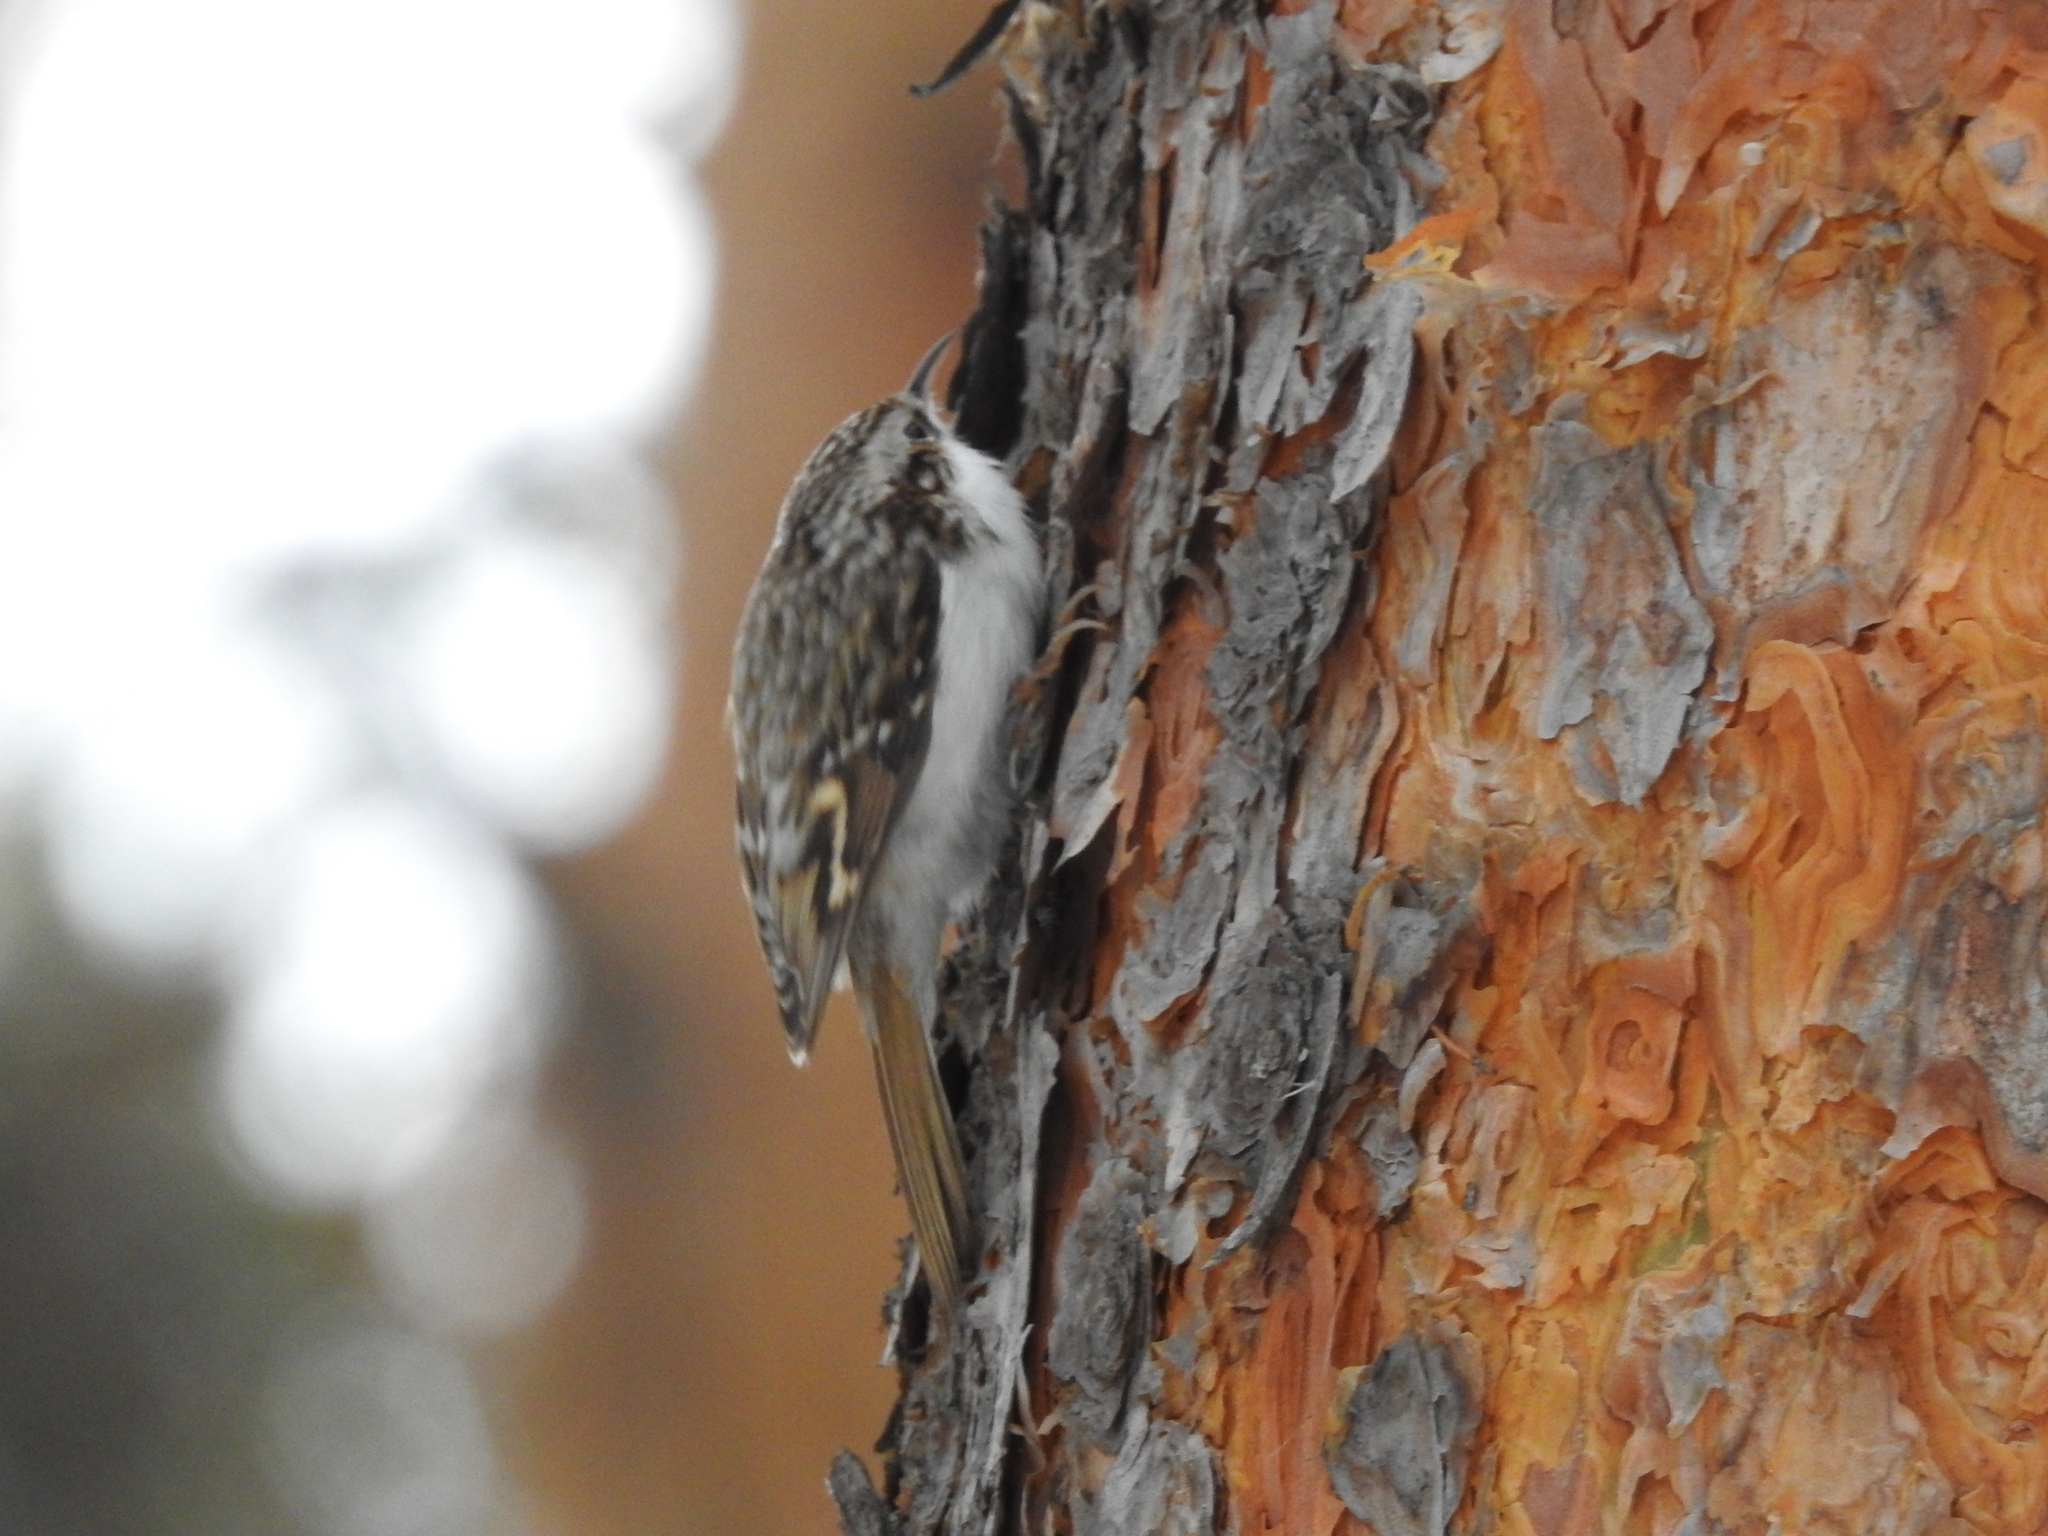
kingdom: Animalia
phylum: Chordata
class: Aves
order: Passeriformes
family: Certhiidae
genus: Certhia
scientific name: Certhia familiaris
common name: Eurasian treecreeper
